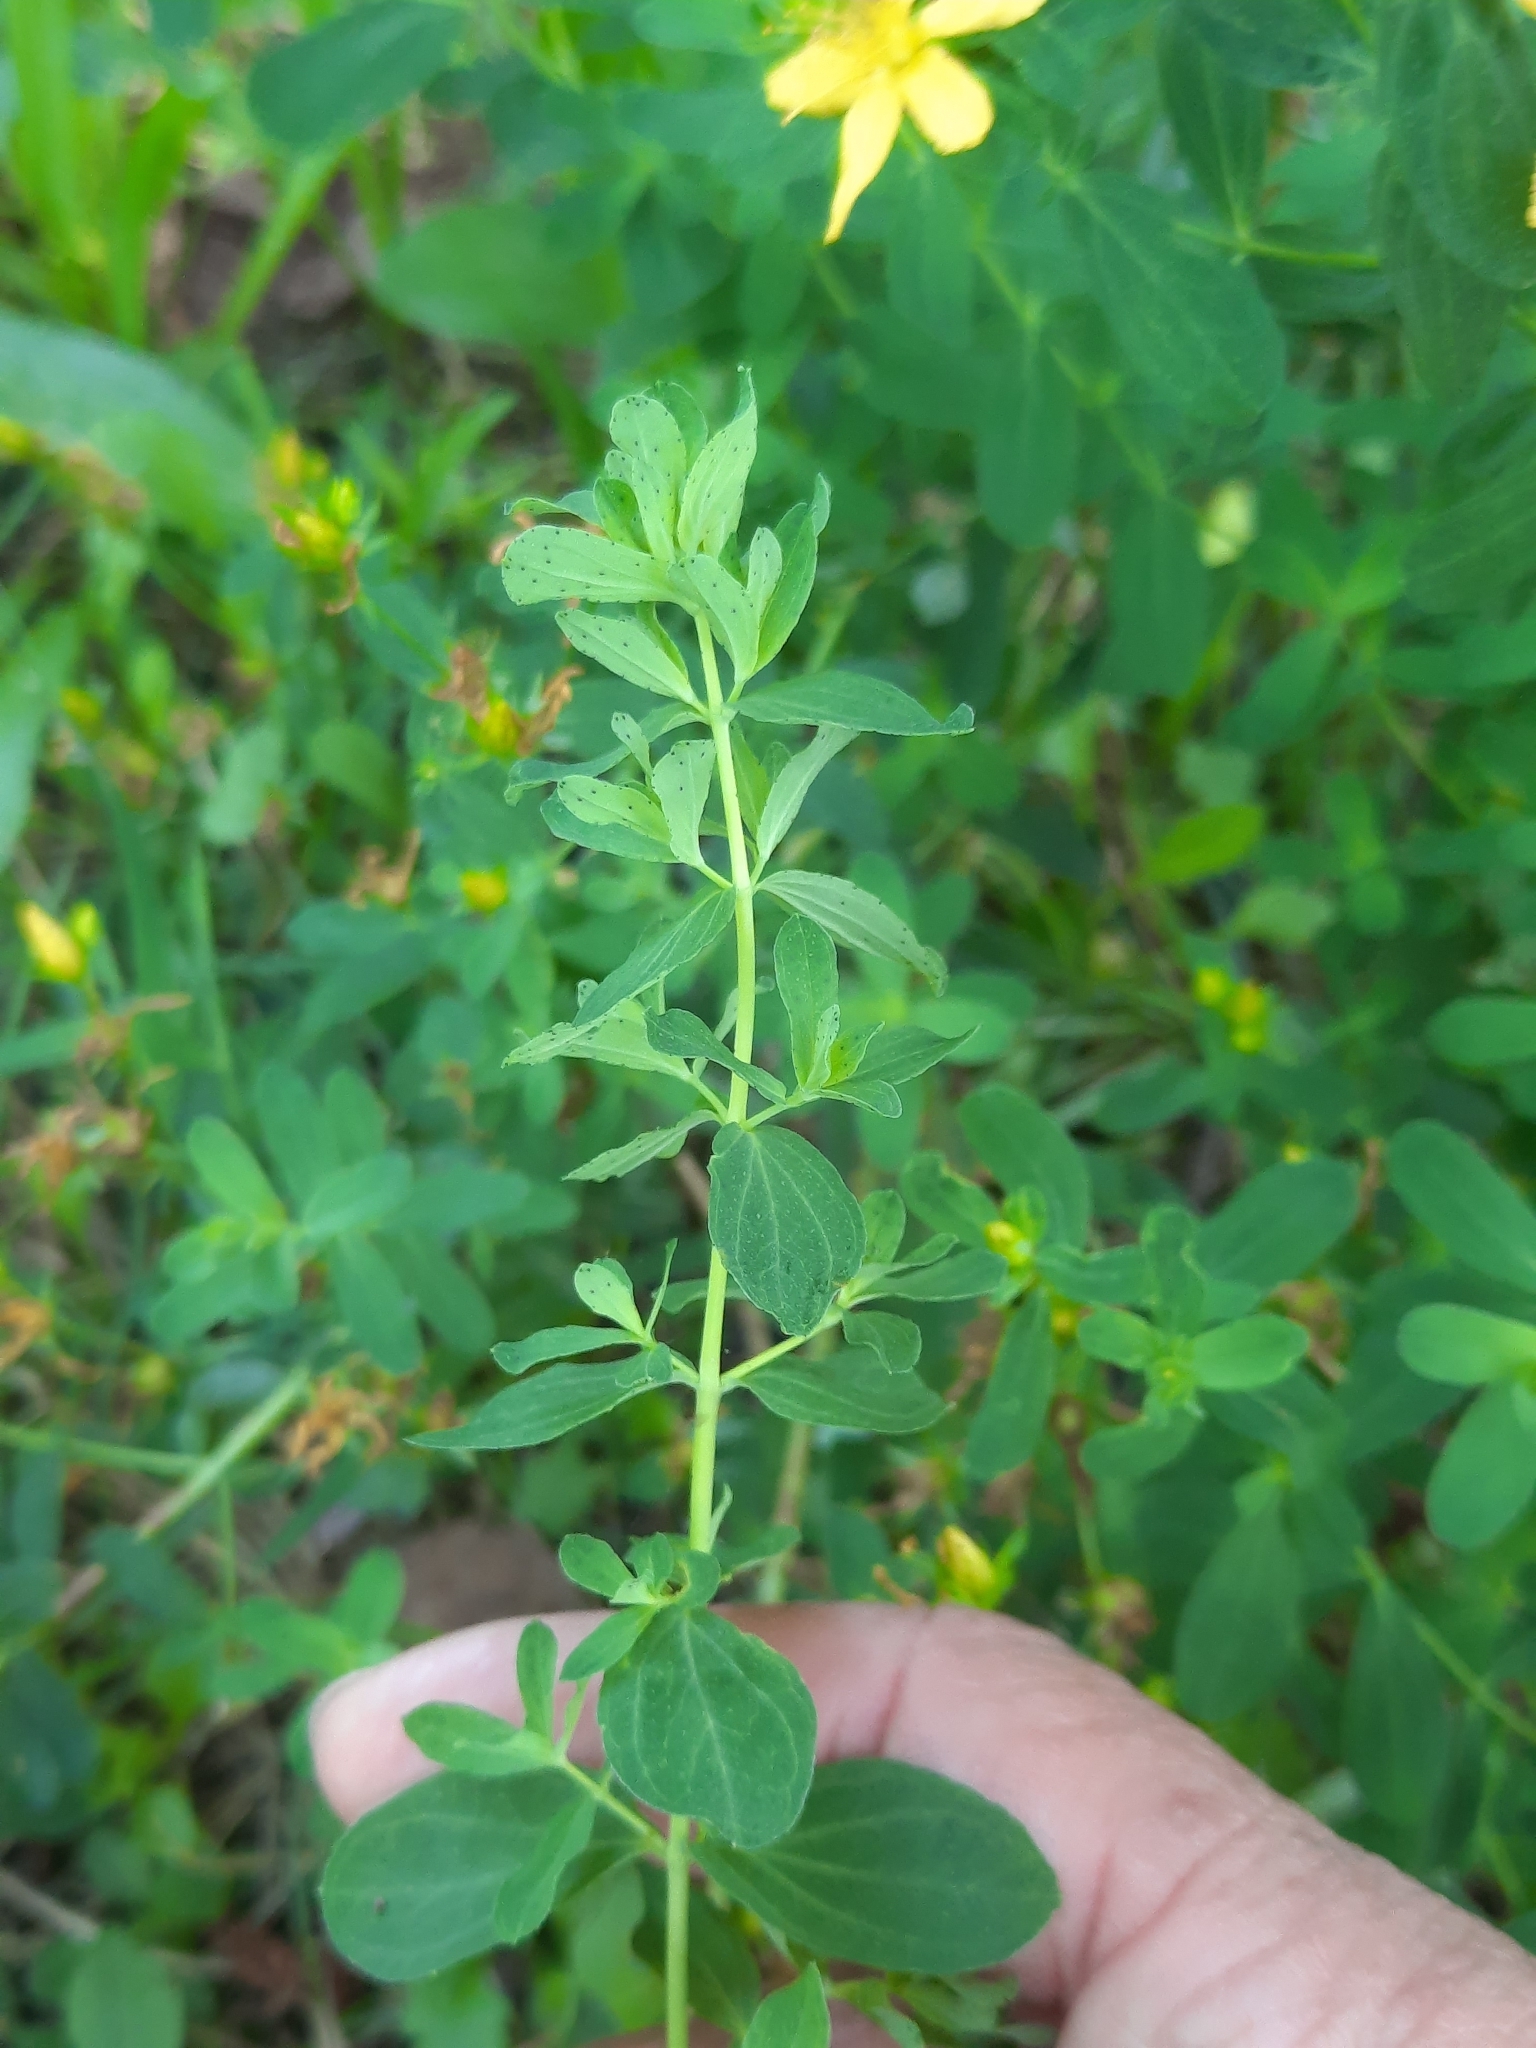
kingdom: Plantae
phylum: Tracheophyta
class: Magnoliopsida
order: Malpighiales
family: Hypericaceae
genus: Hypericum
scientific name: Hypericum perforatum
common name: Common st. johnswort
